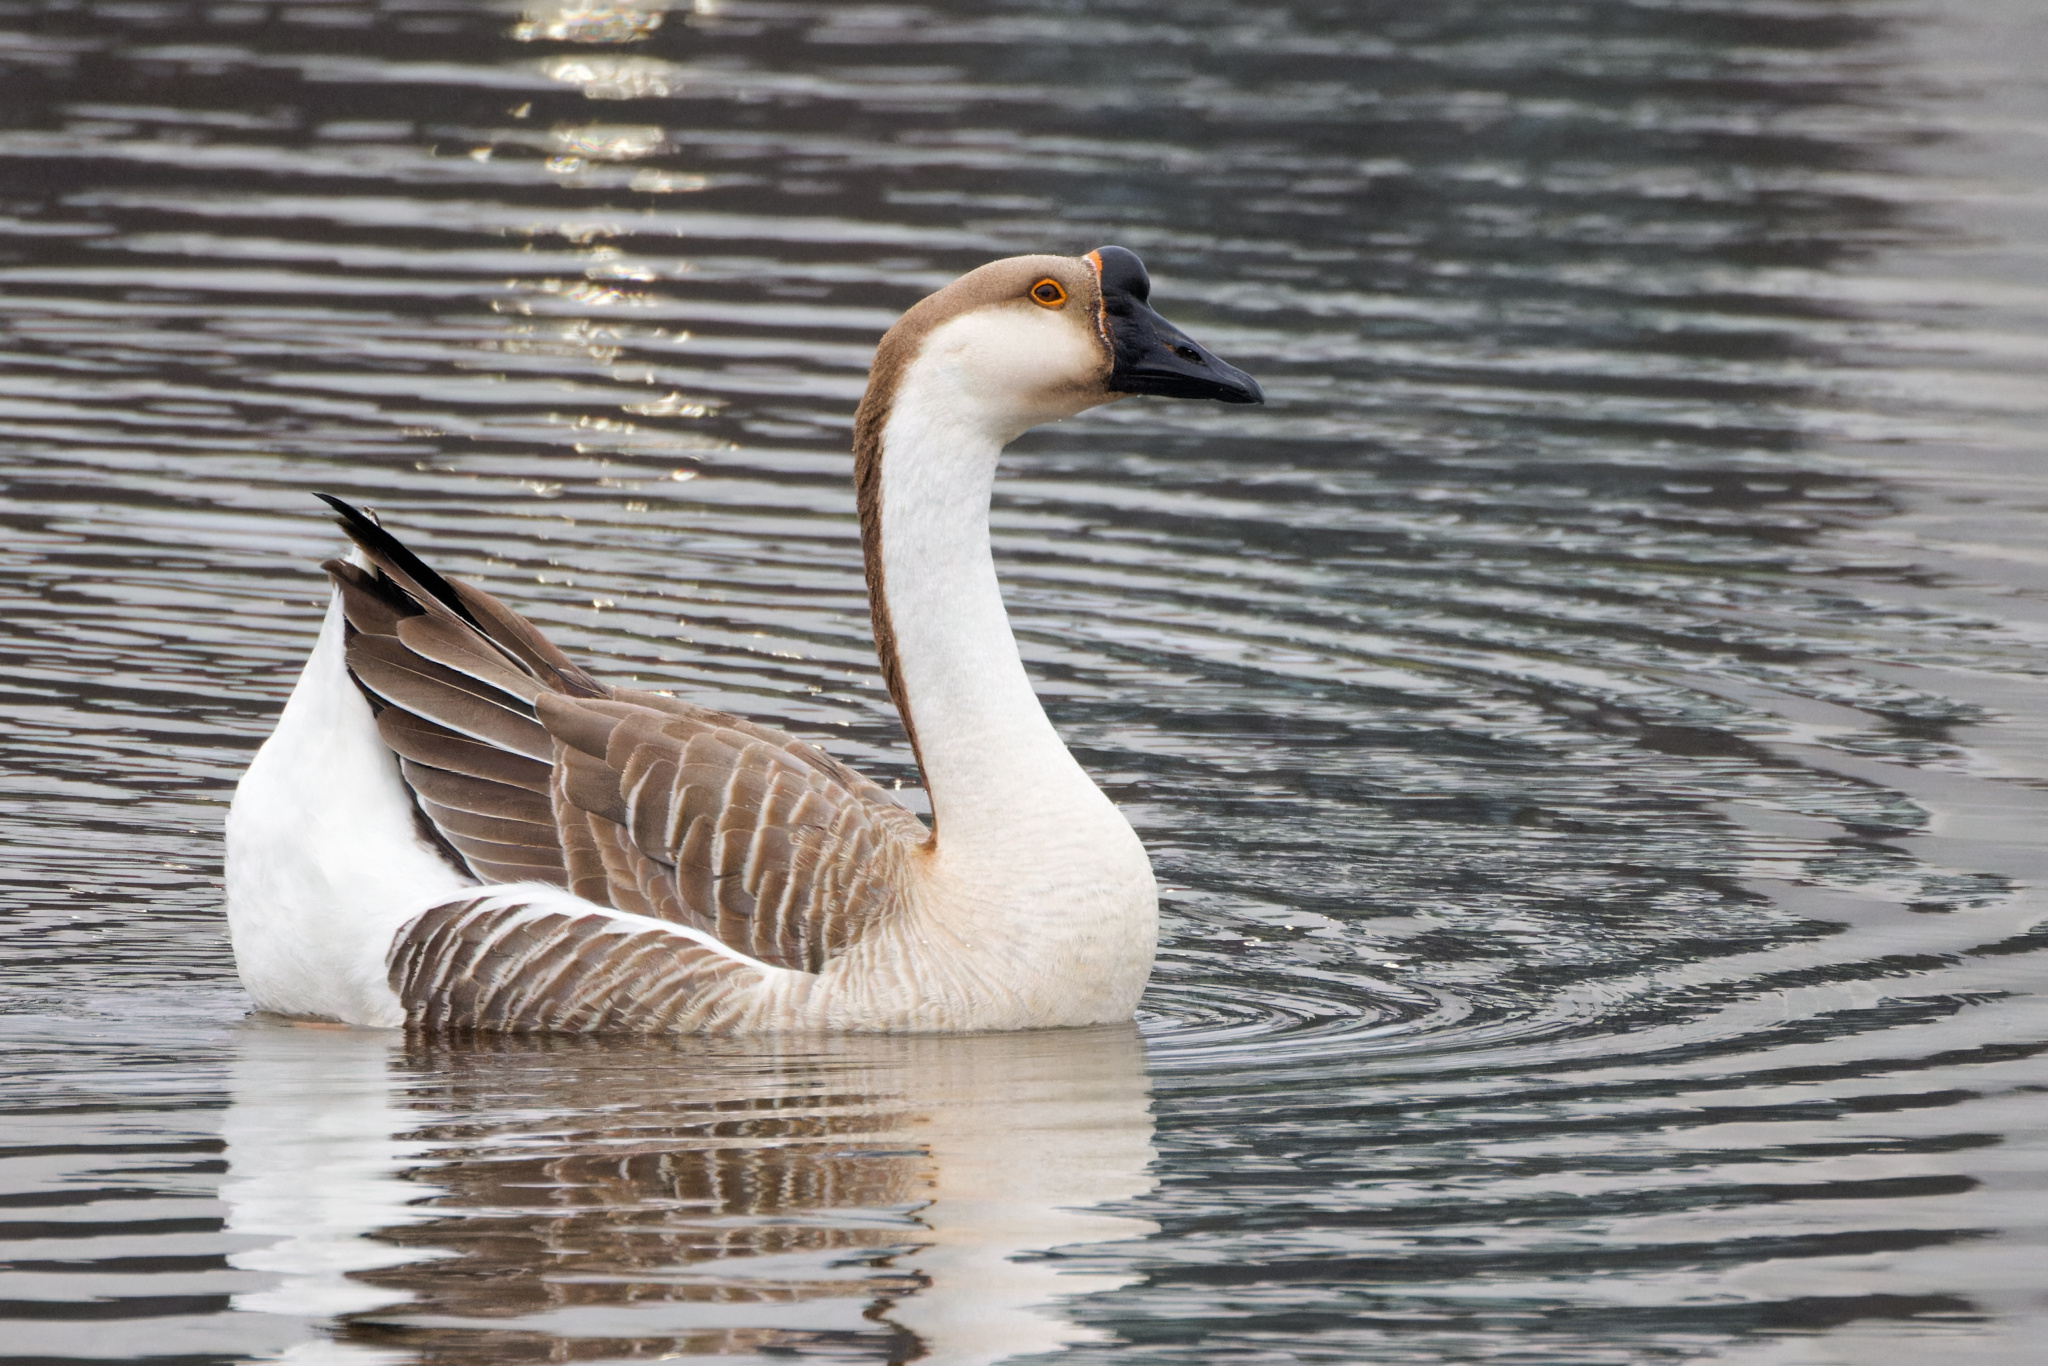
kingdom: Animalia
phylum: Chordata
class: Aves
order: Anseriformes
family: Anatidae
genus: Anser
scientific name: Anser cygnoides
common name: Swan goose
